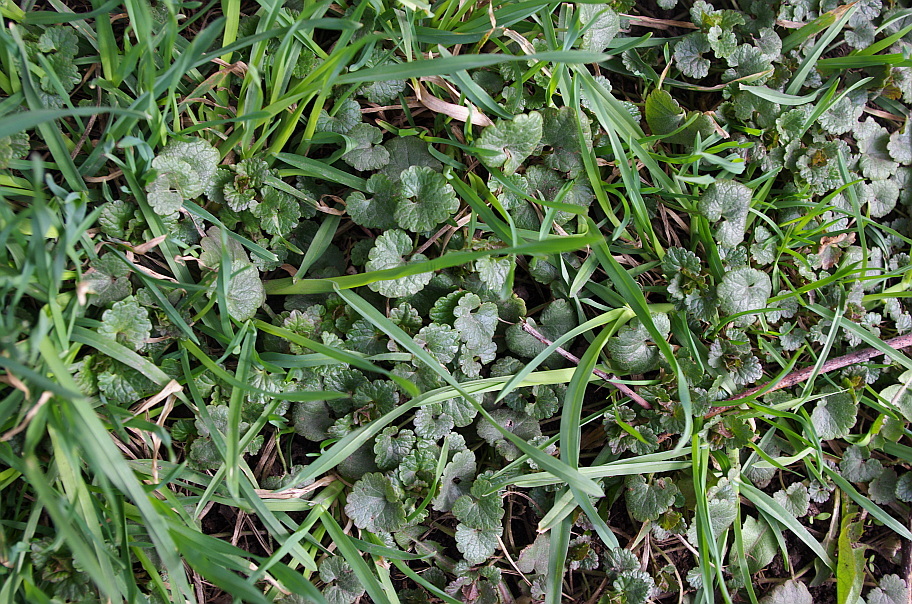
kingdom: Plantae
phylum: Tracheophyta
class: Magnoliopsida
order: Lamiales
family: Lamiaceae
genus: Glechoma
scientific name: Glechoma hederacea
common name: Ground ivy
